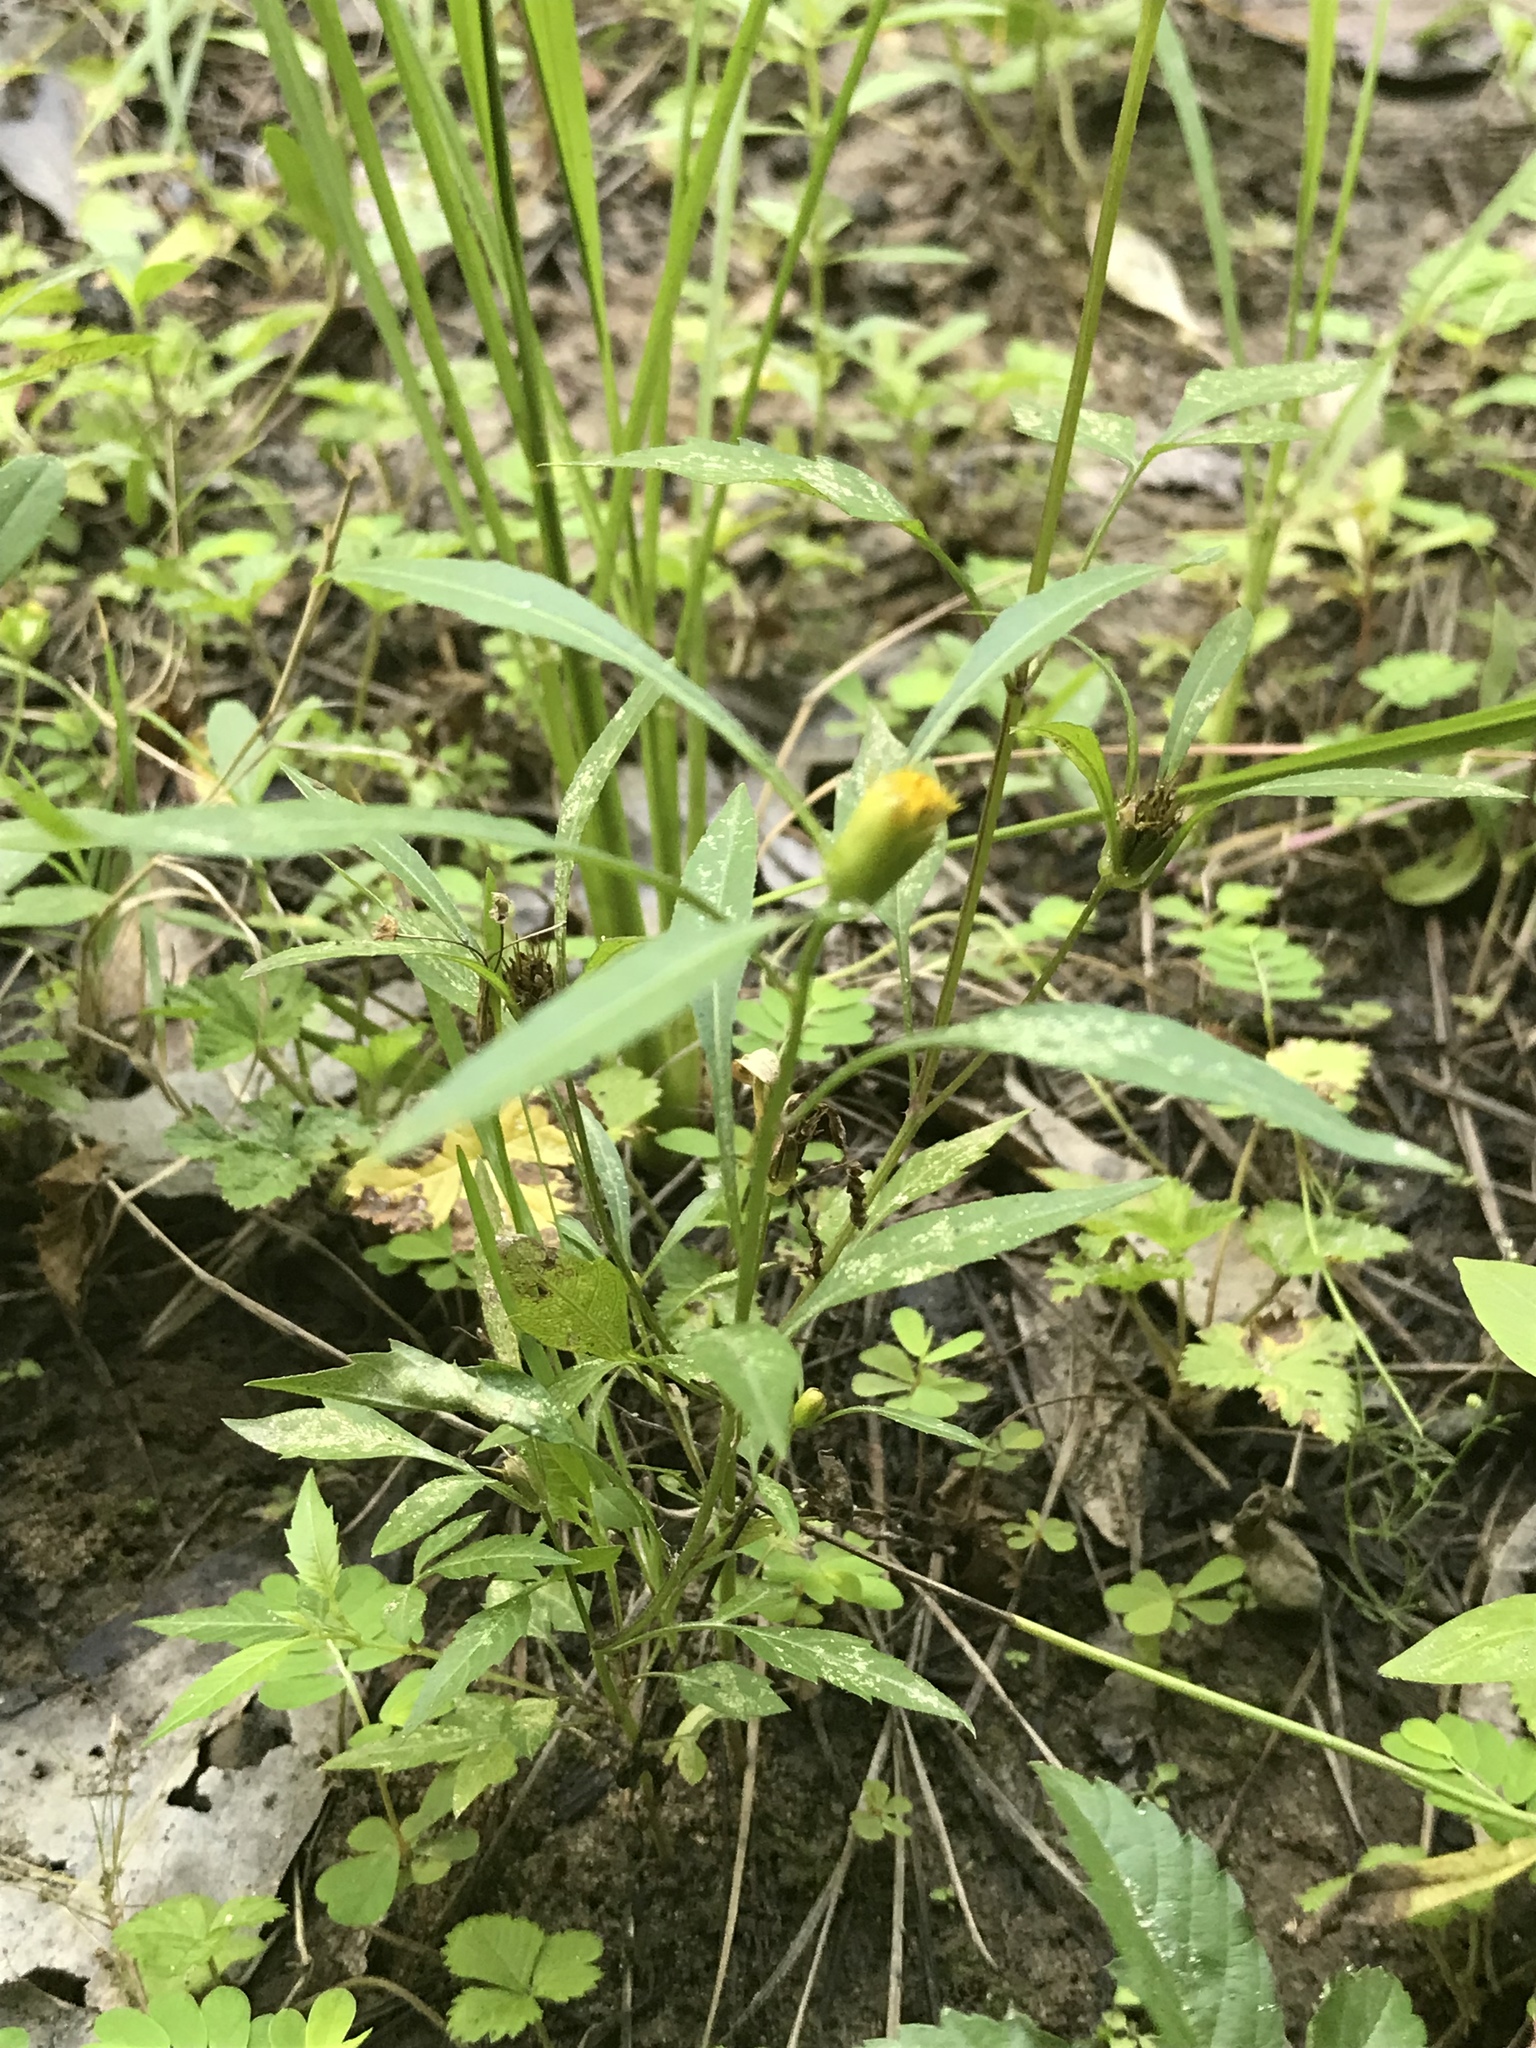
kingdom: Plantae
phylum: Tracheophyta
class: Magnoliopsida
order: Asterales
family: Asteraceae
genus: Bidens
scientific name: Bidens frondosa
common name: Beggarticks
